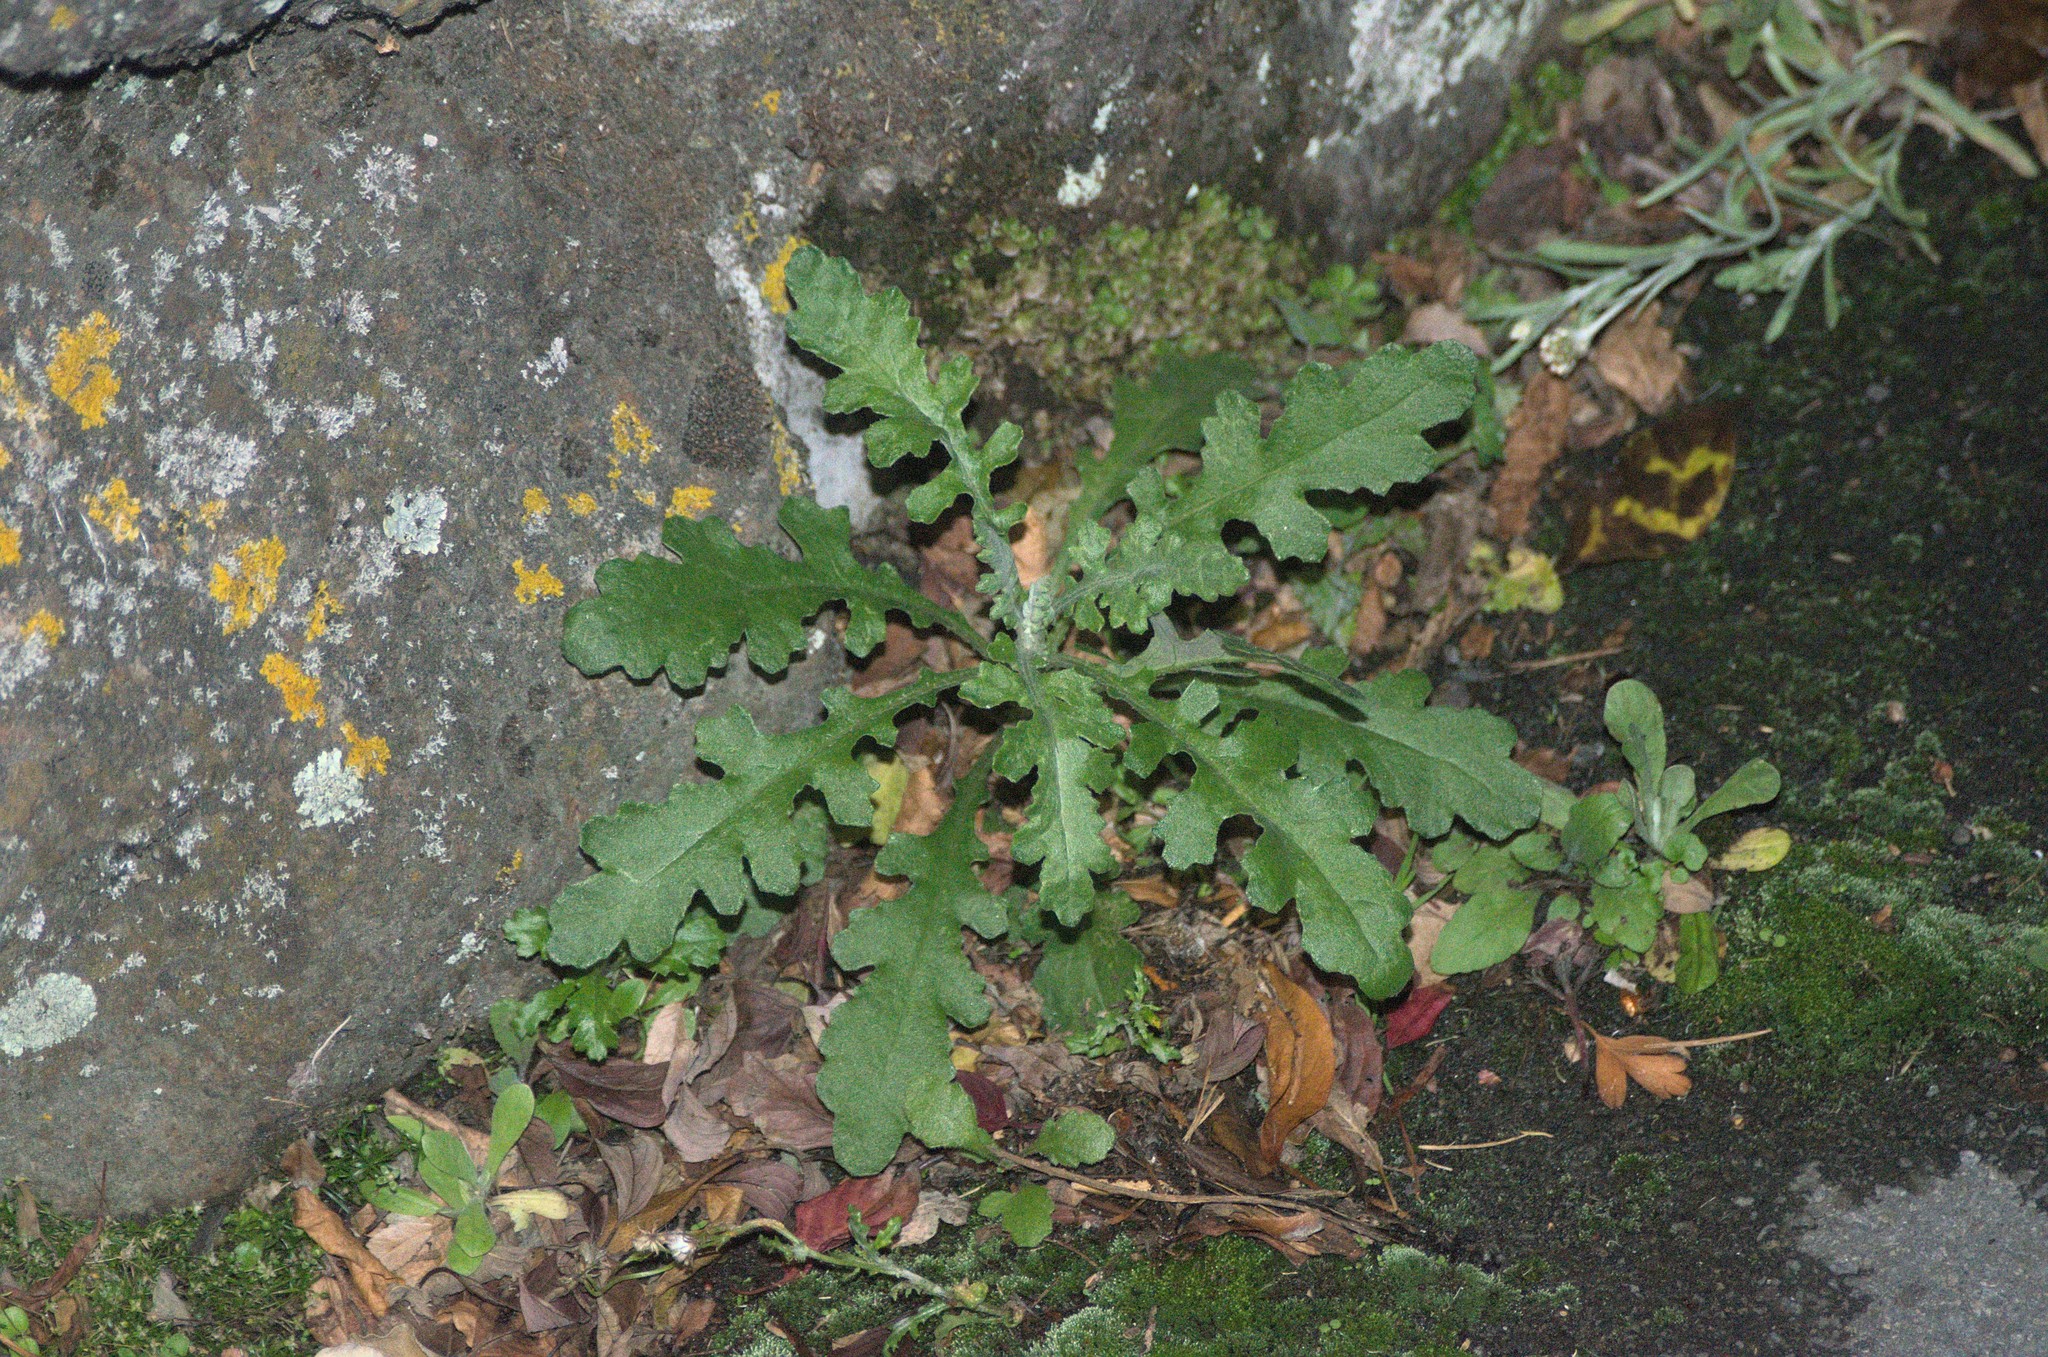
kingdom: Plantae
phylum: Tracheophyta
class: Magnoliopsida
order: Asterales
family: Asteraceae
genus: Senecio
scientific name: Senecio glomeratus
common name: Cutleaf burnweed
